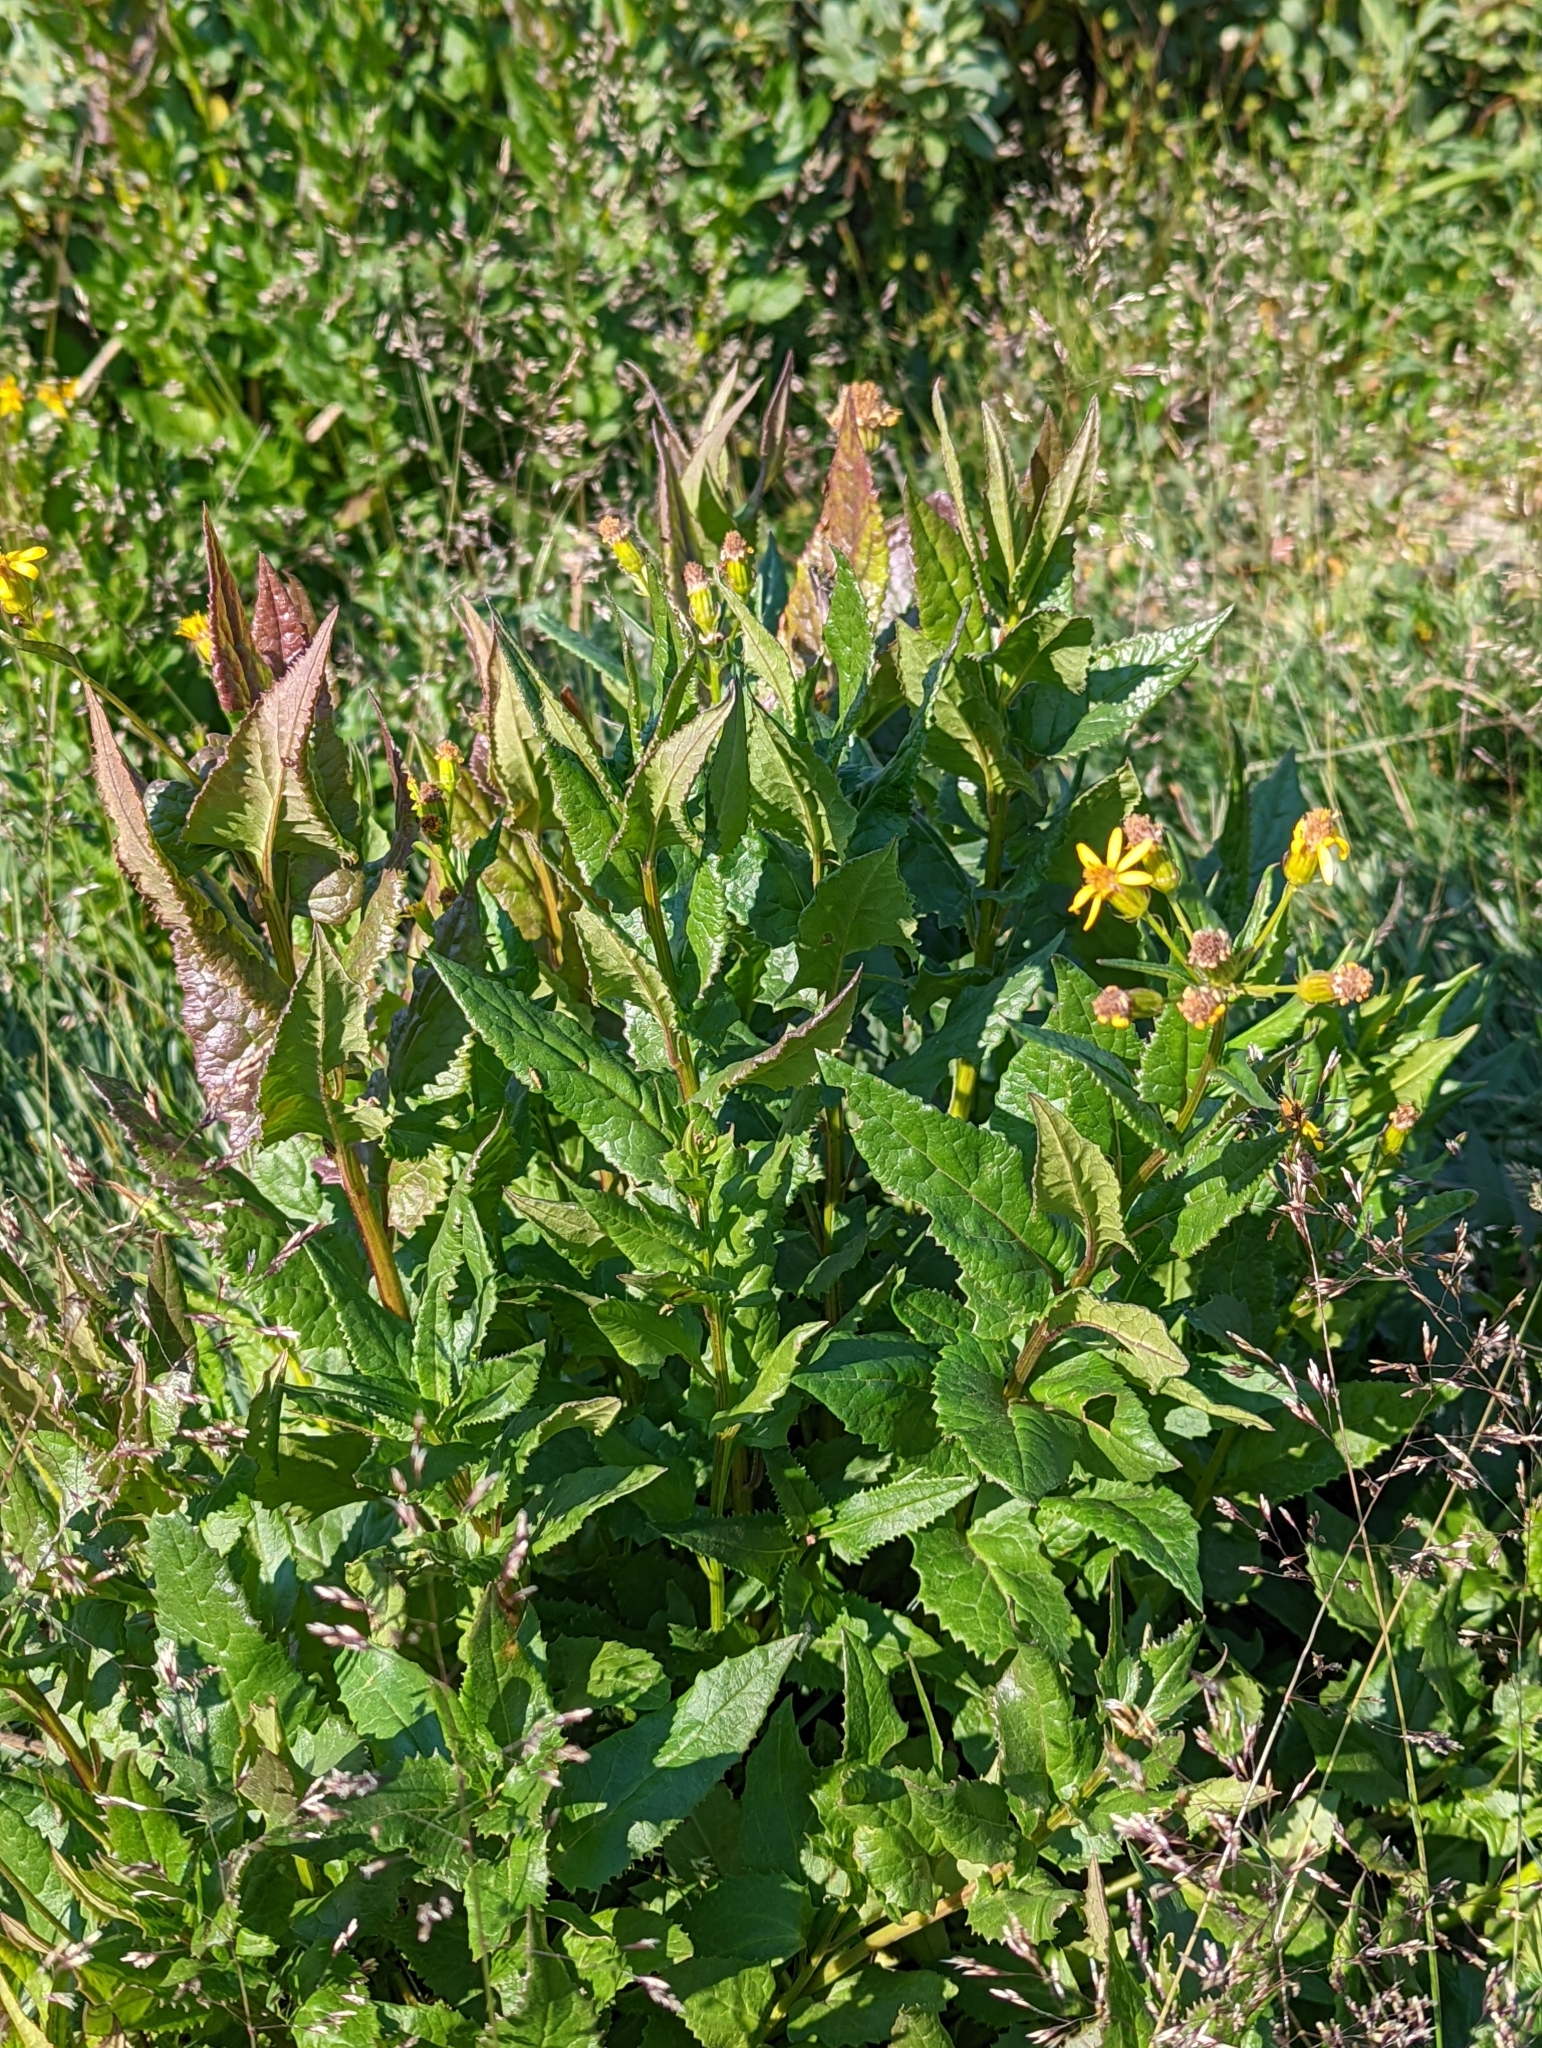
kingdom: Plantae
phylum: Tracheophyta
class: Magnoliopsida
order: Asterales
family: Asteraceae
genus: Senecio
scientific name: Senecio triangularis
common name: Arrowleaf butterweed
